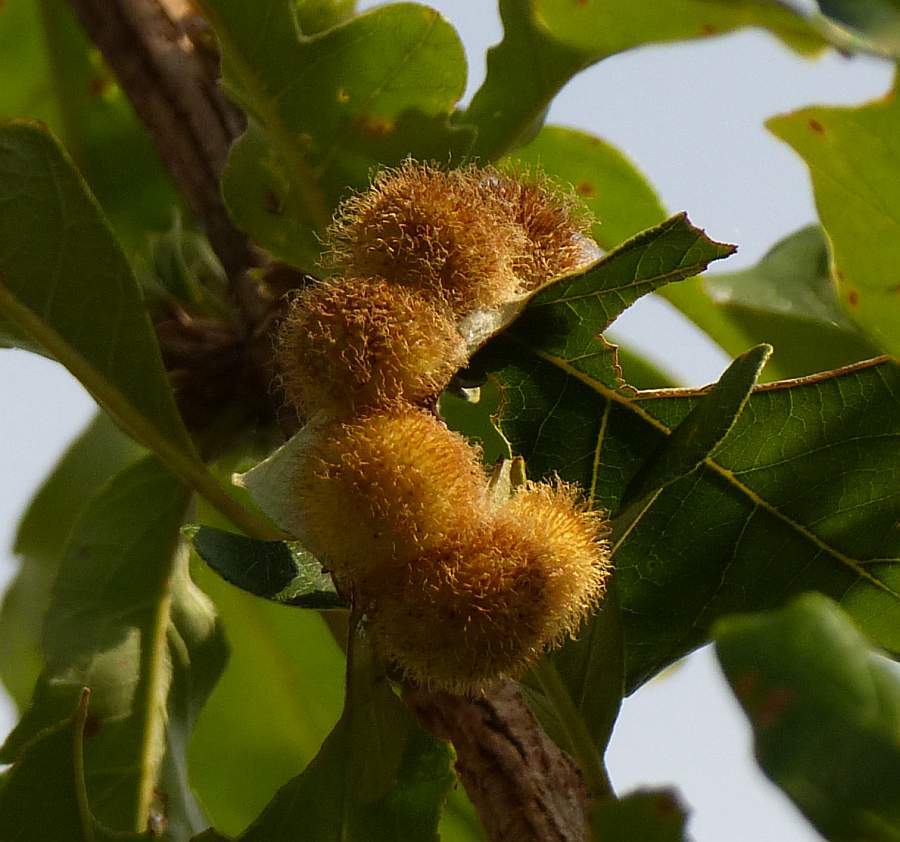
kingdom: Animalia
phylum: Arthropoda
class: Insecta
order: Hymenoptera
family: Cynipidae
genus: Acraspis
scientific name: Acraspis villosa
